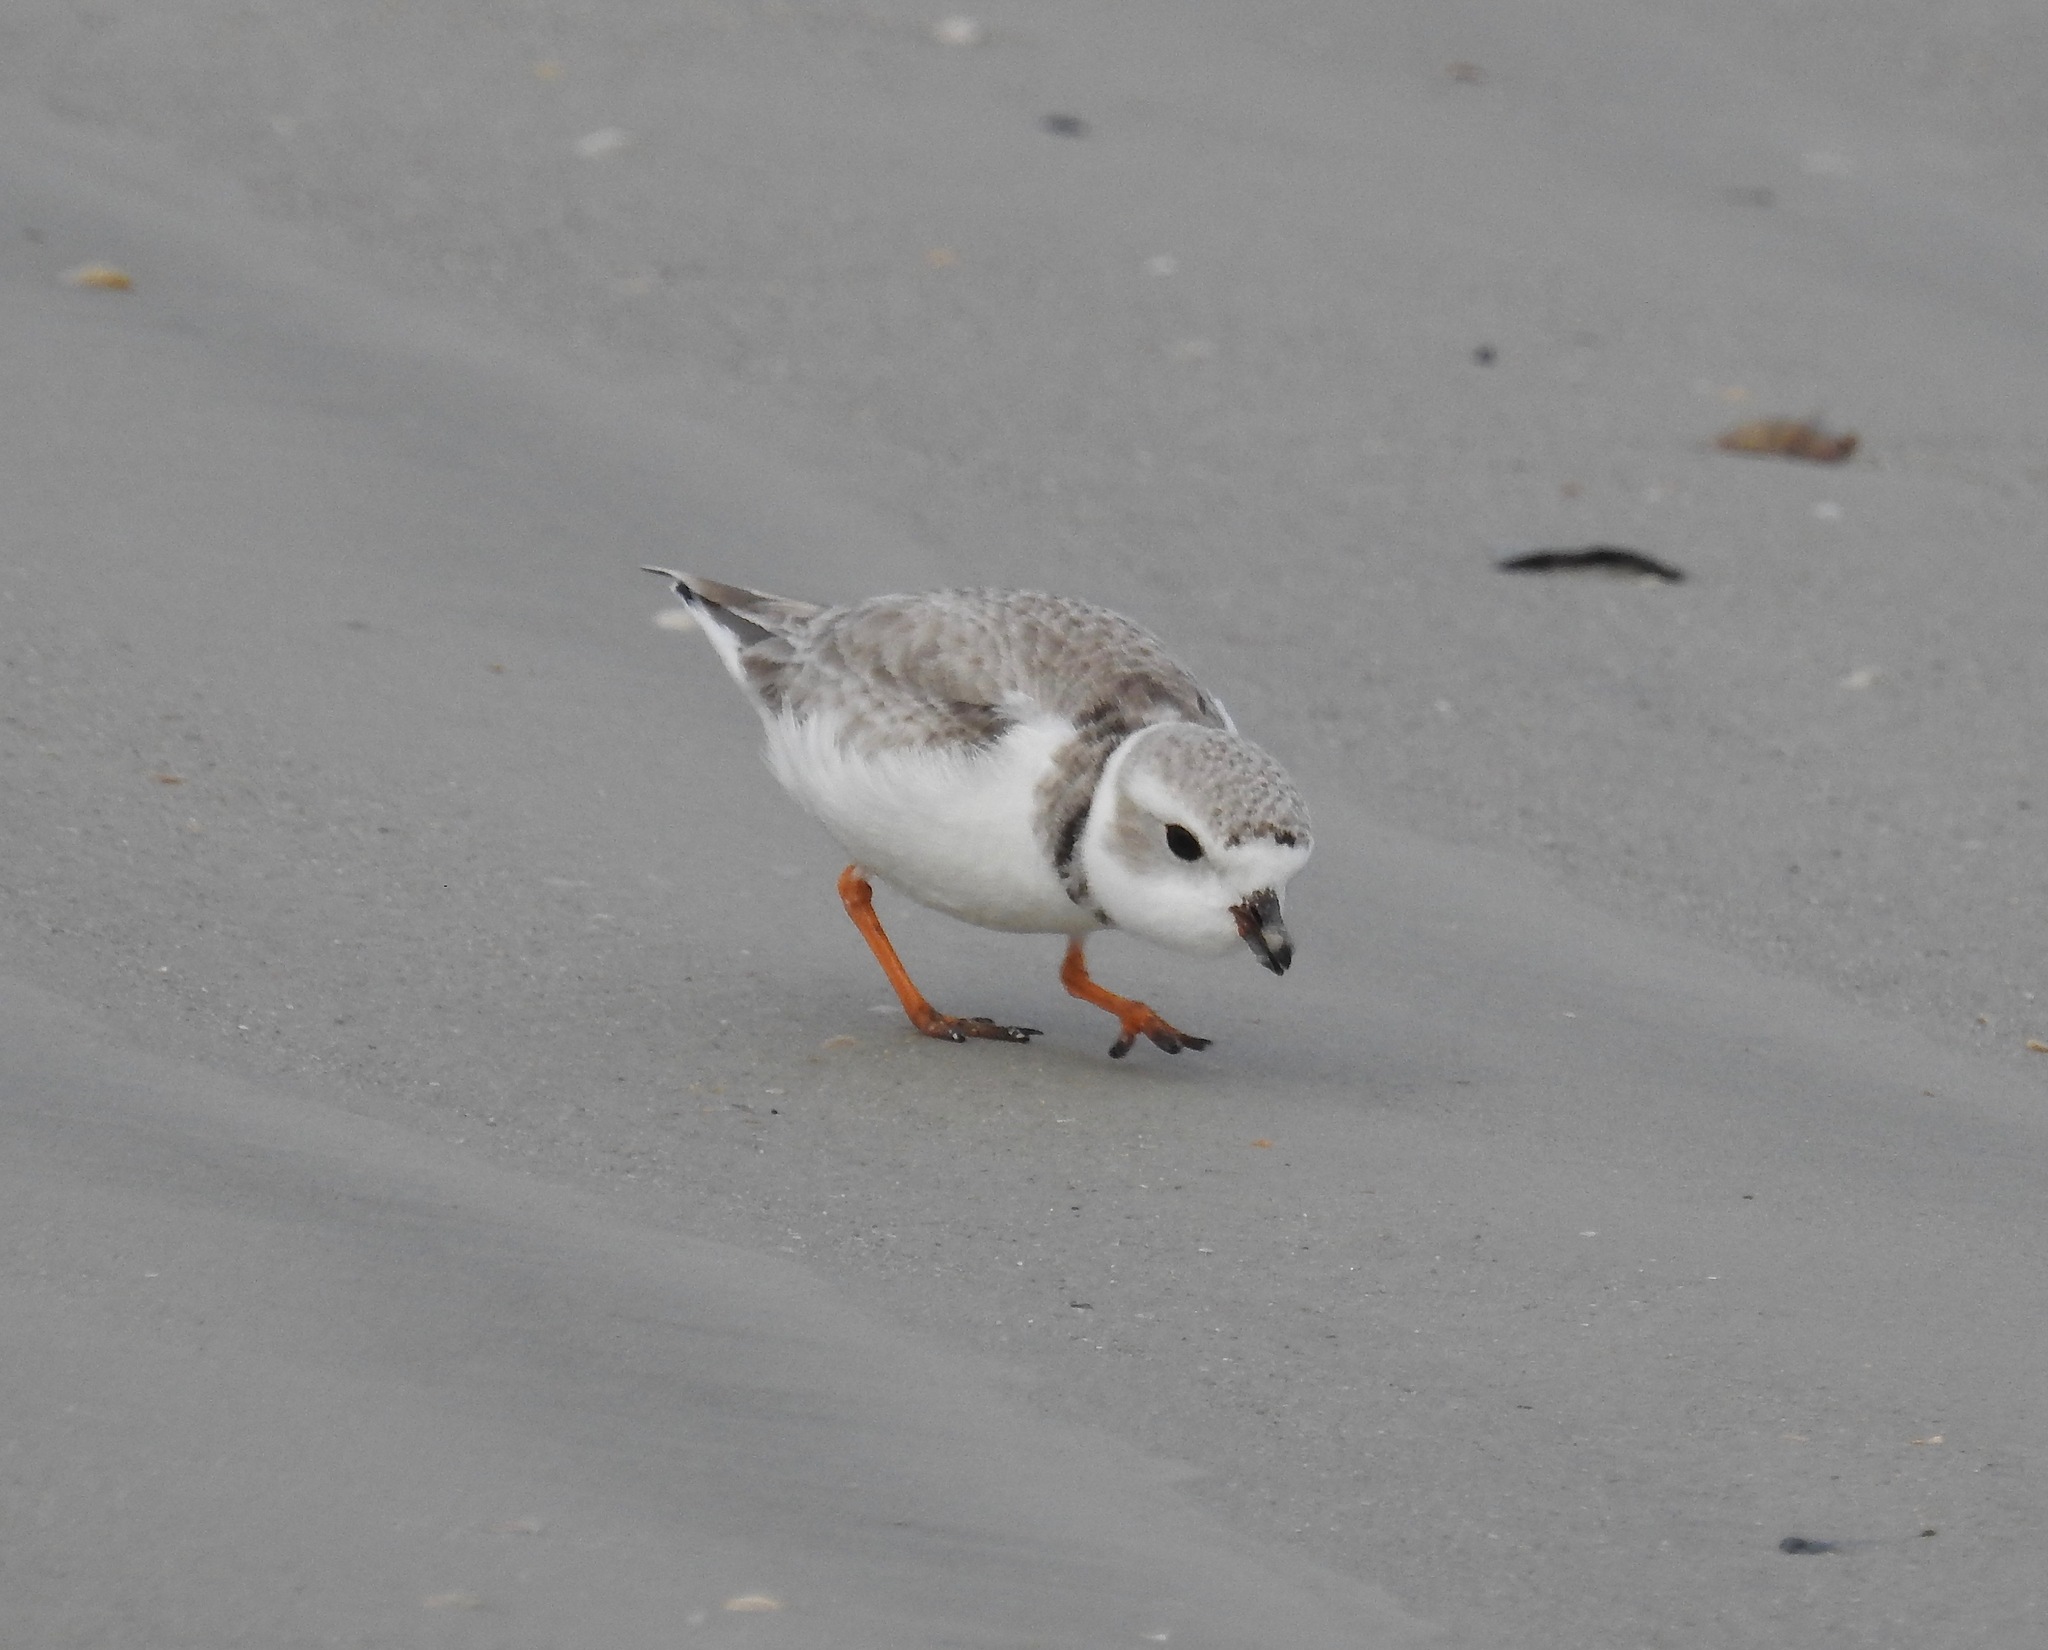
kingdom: Animalia
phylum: Chordata
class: Aves
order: Charadriiformes
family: Charadriidae
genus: Charadrius
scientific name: Charadrius melodus
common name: Piping plover
